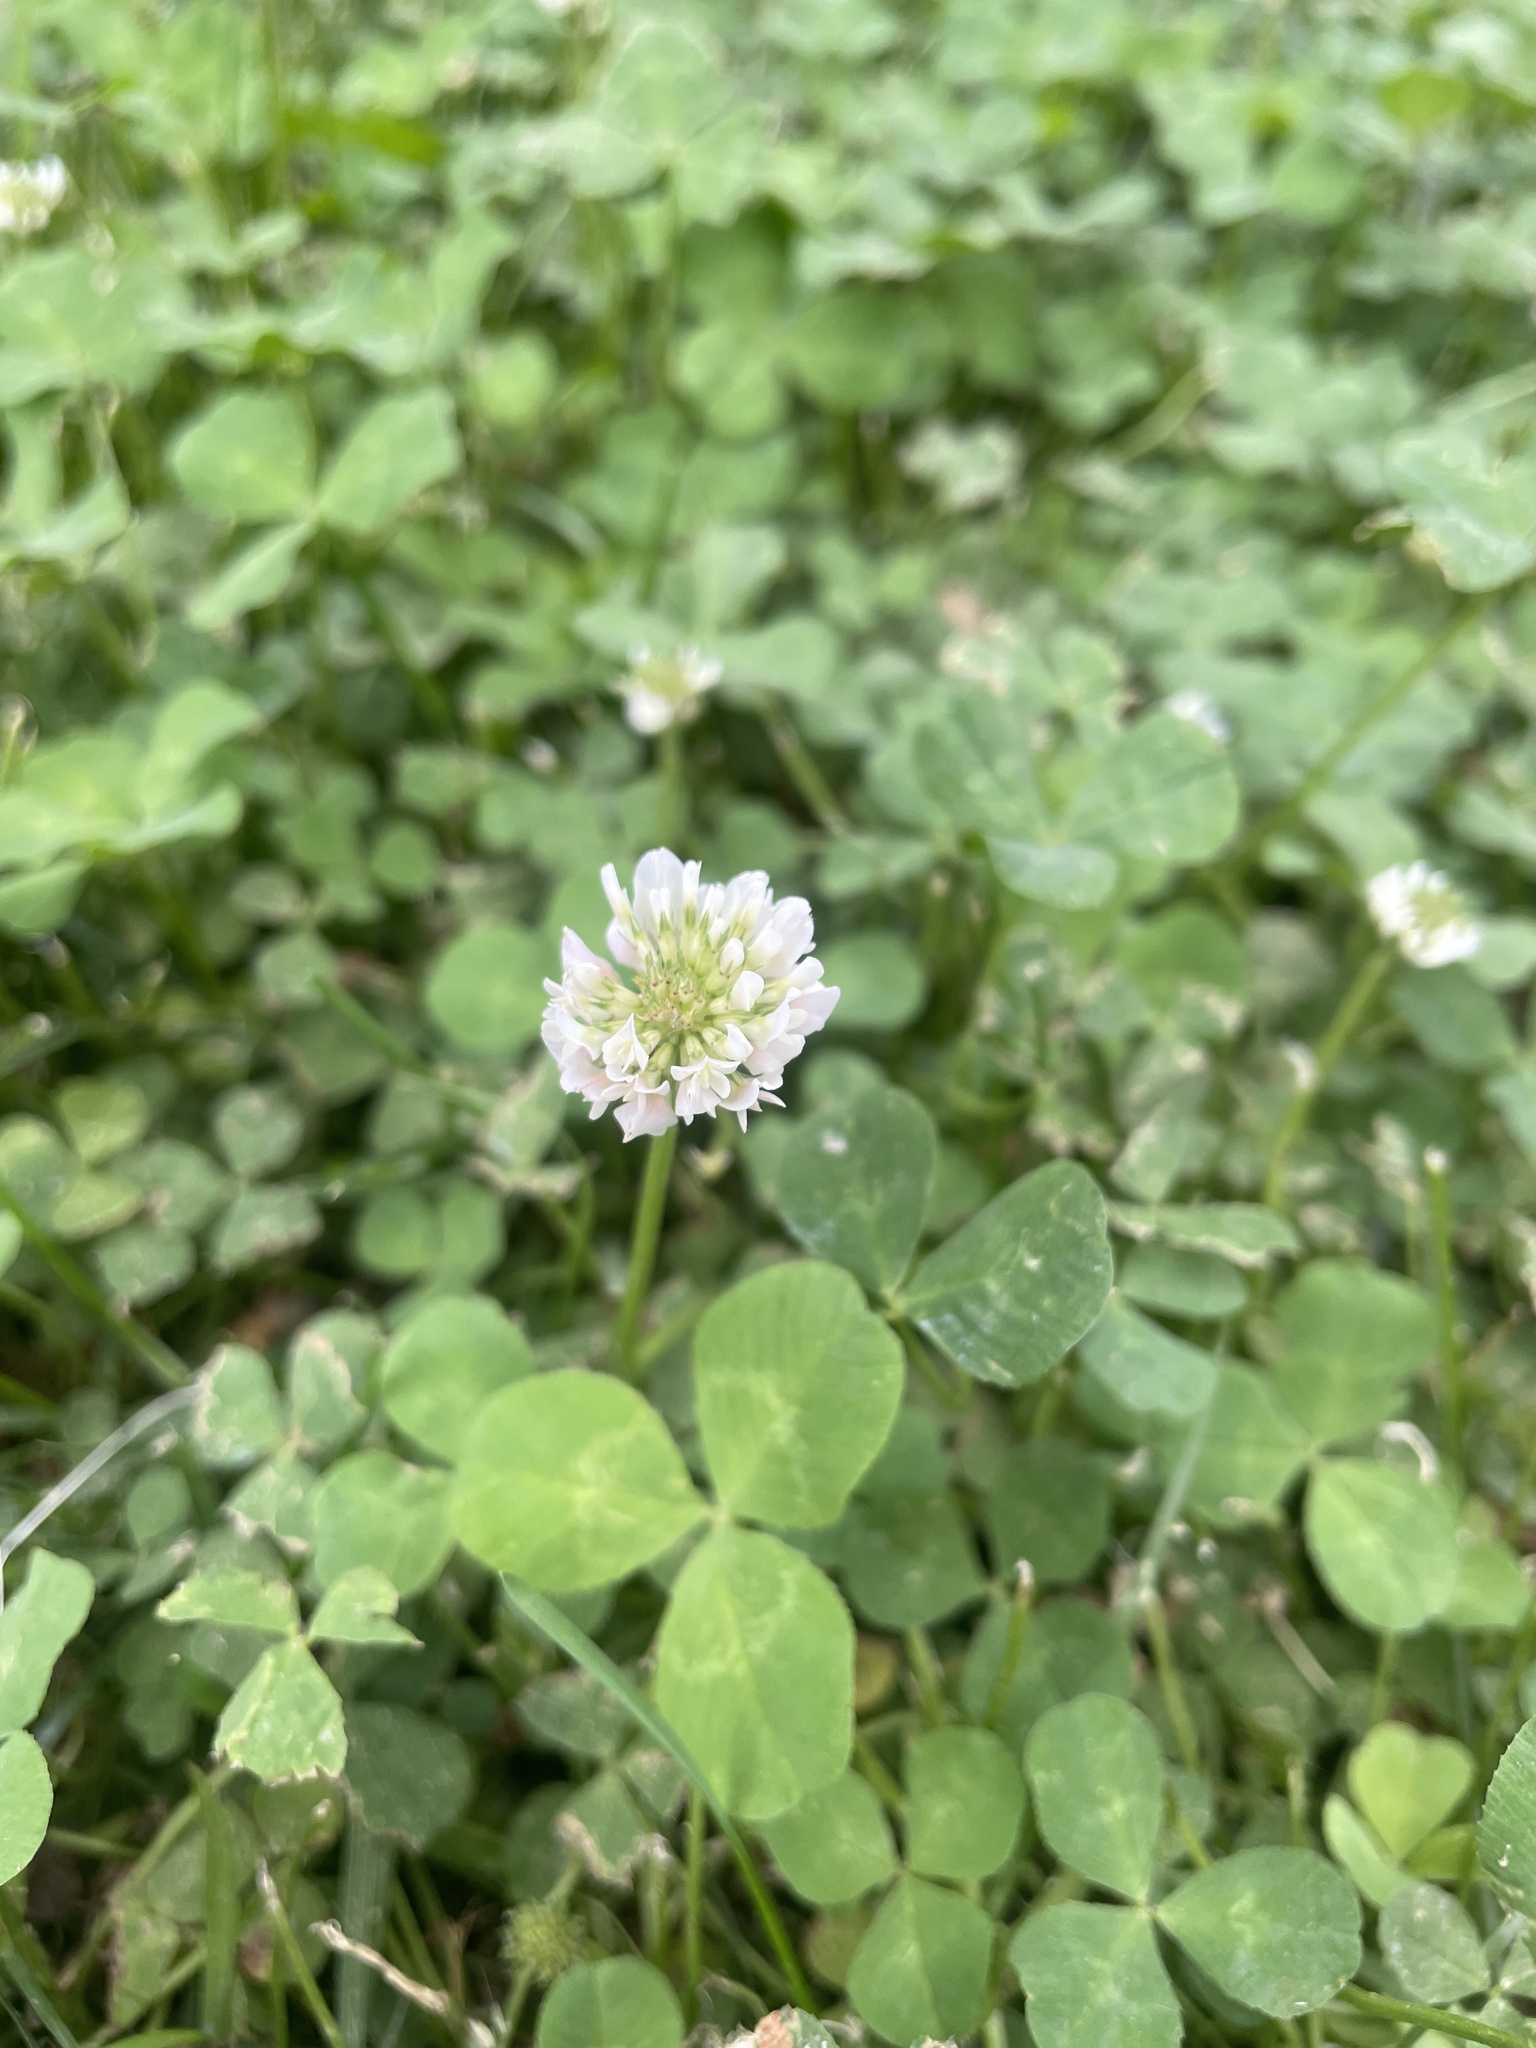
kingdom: Plantae
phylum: Tracheophyta
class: Magnoliopsida
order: Fabales
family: Fabaceae
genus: Trifolium
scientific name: Trifolium repens
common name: White clover
